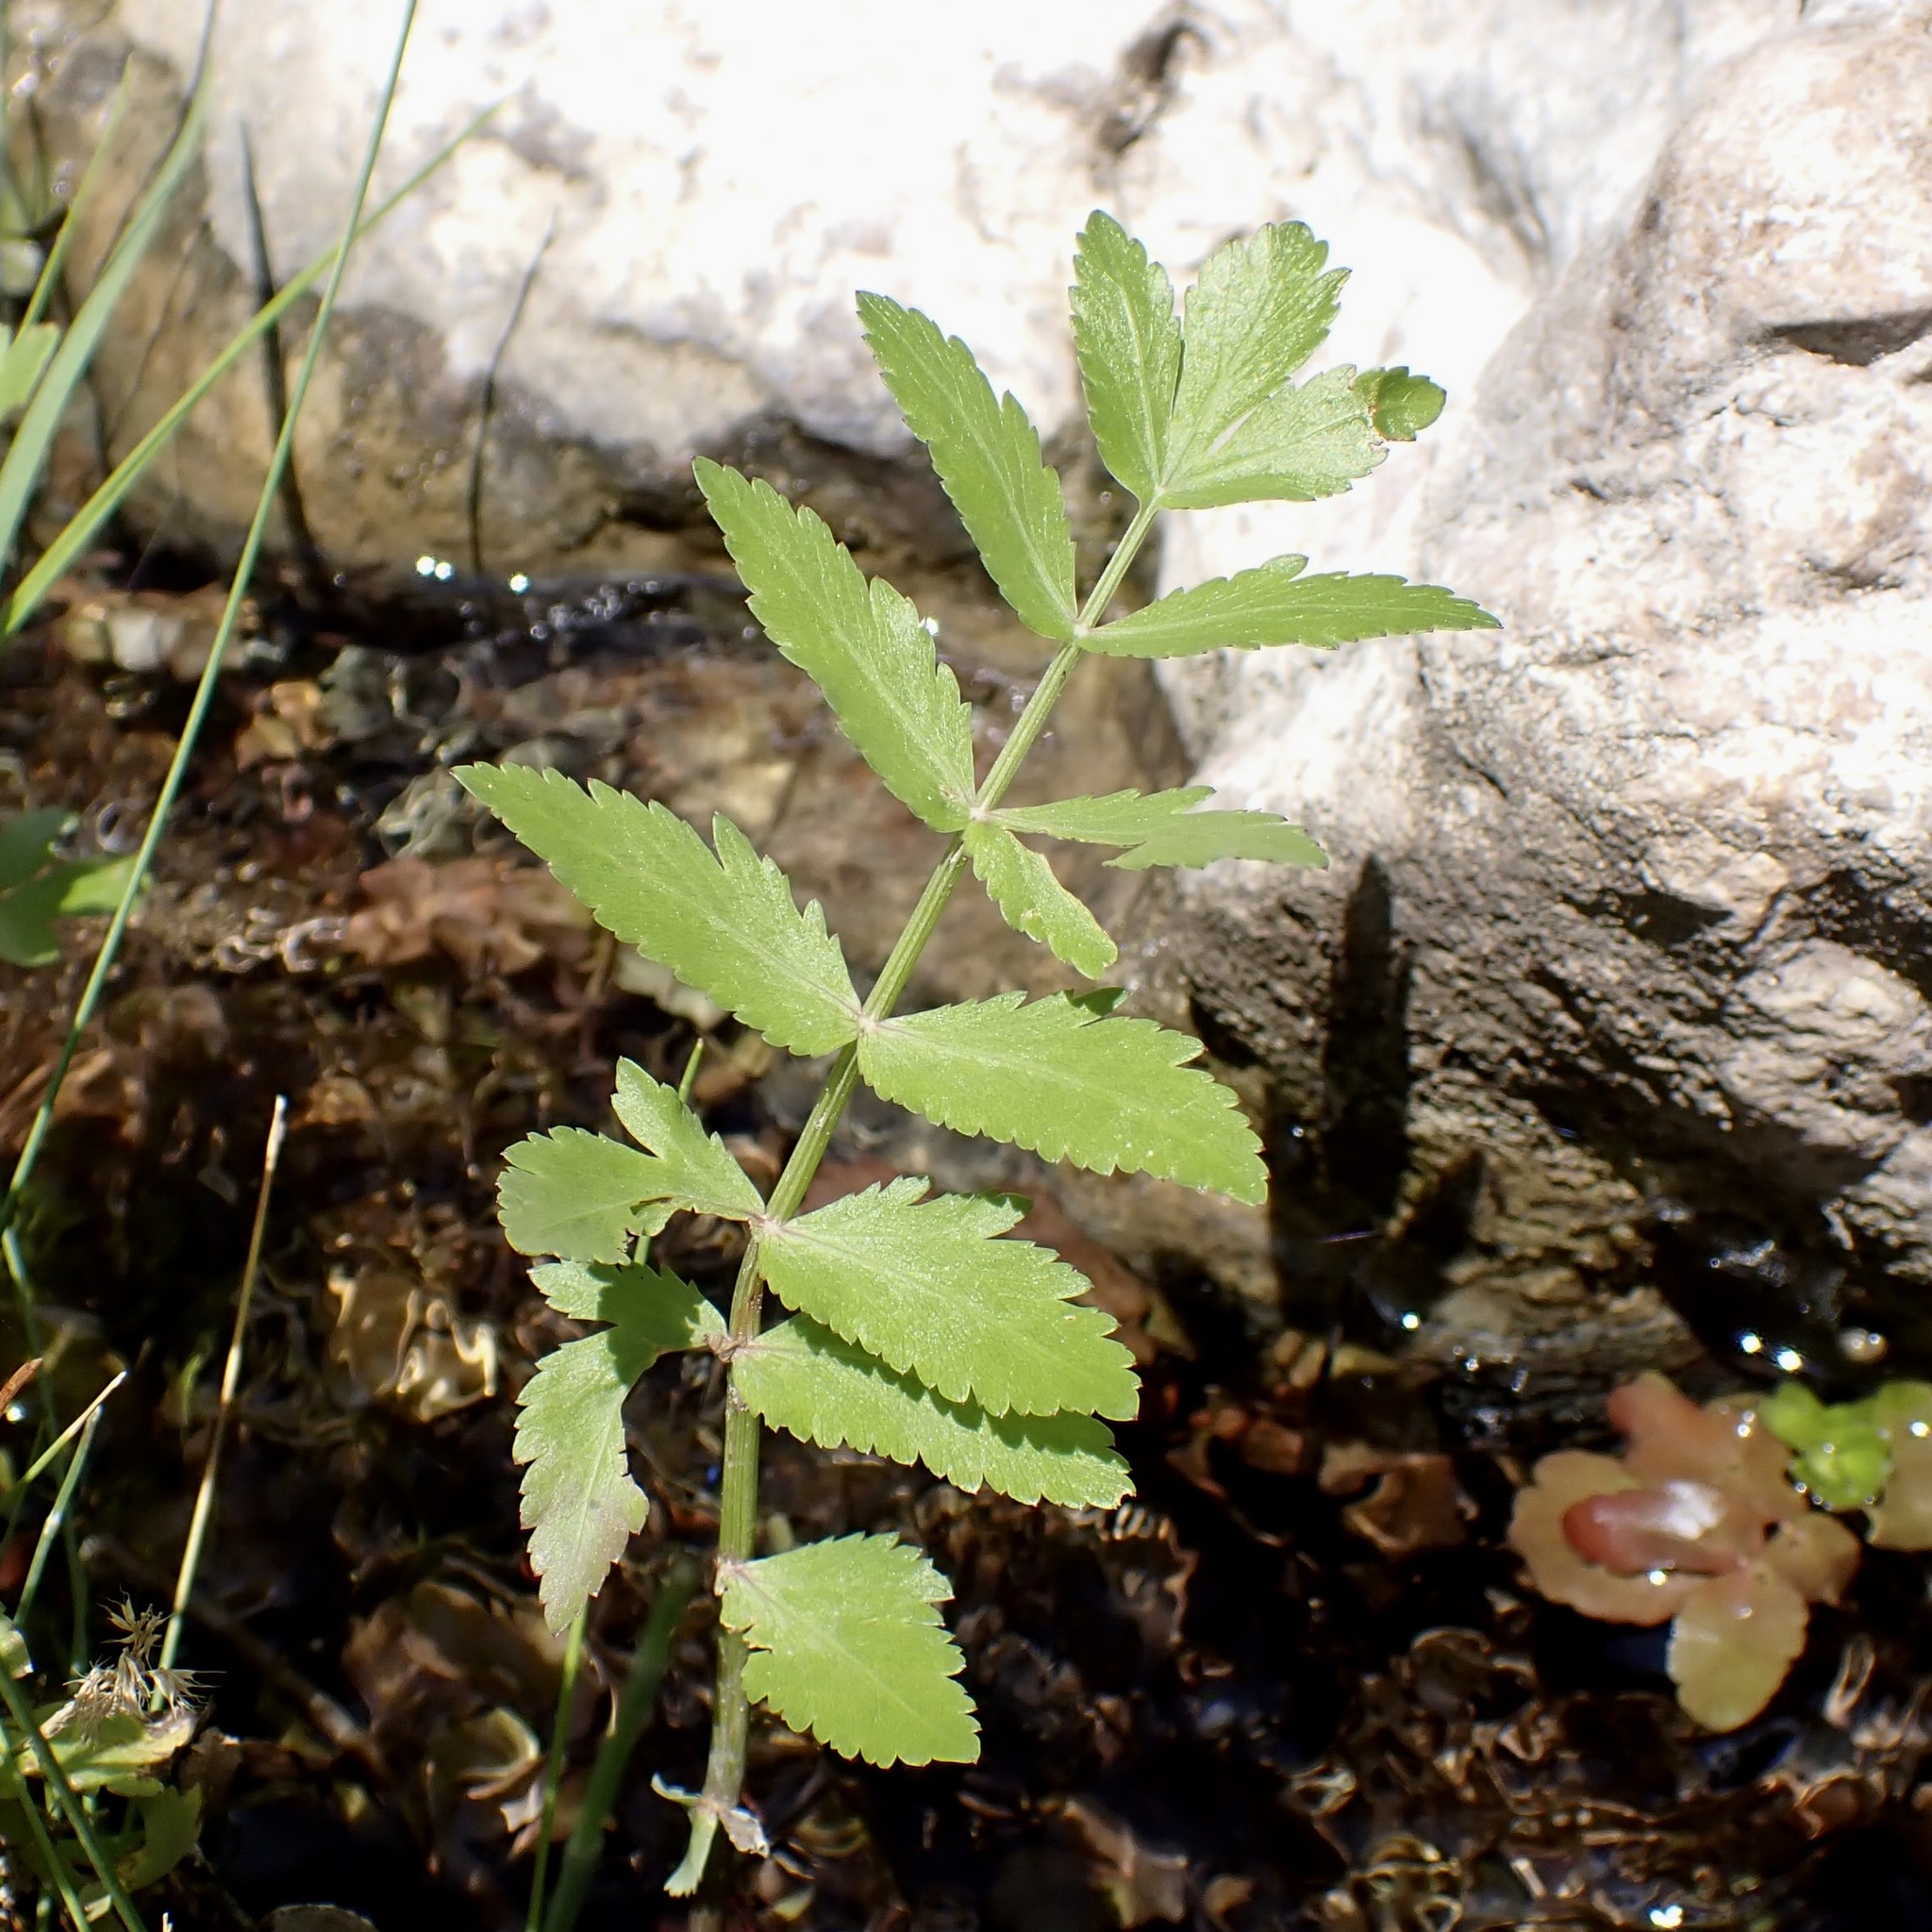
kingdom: Plantae
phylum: Tracheophyta
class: Magnoliopsida
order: Apiales
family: Apiaceae
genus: Berula
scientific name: Berula erecta
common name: Lesser water-parsnip
